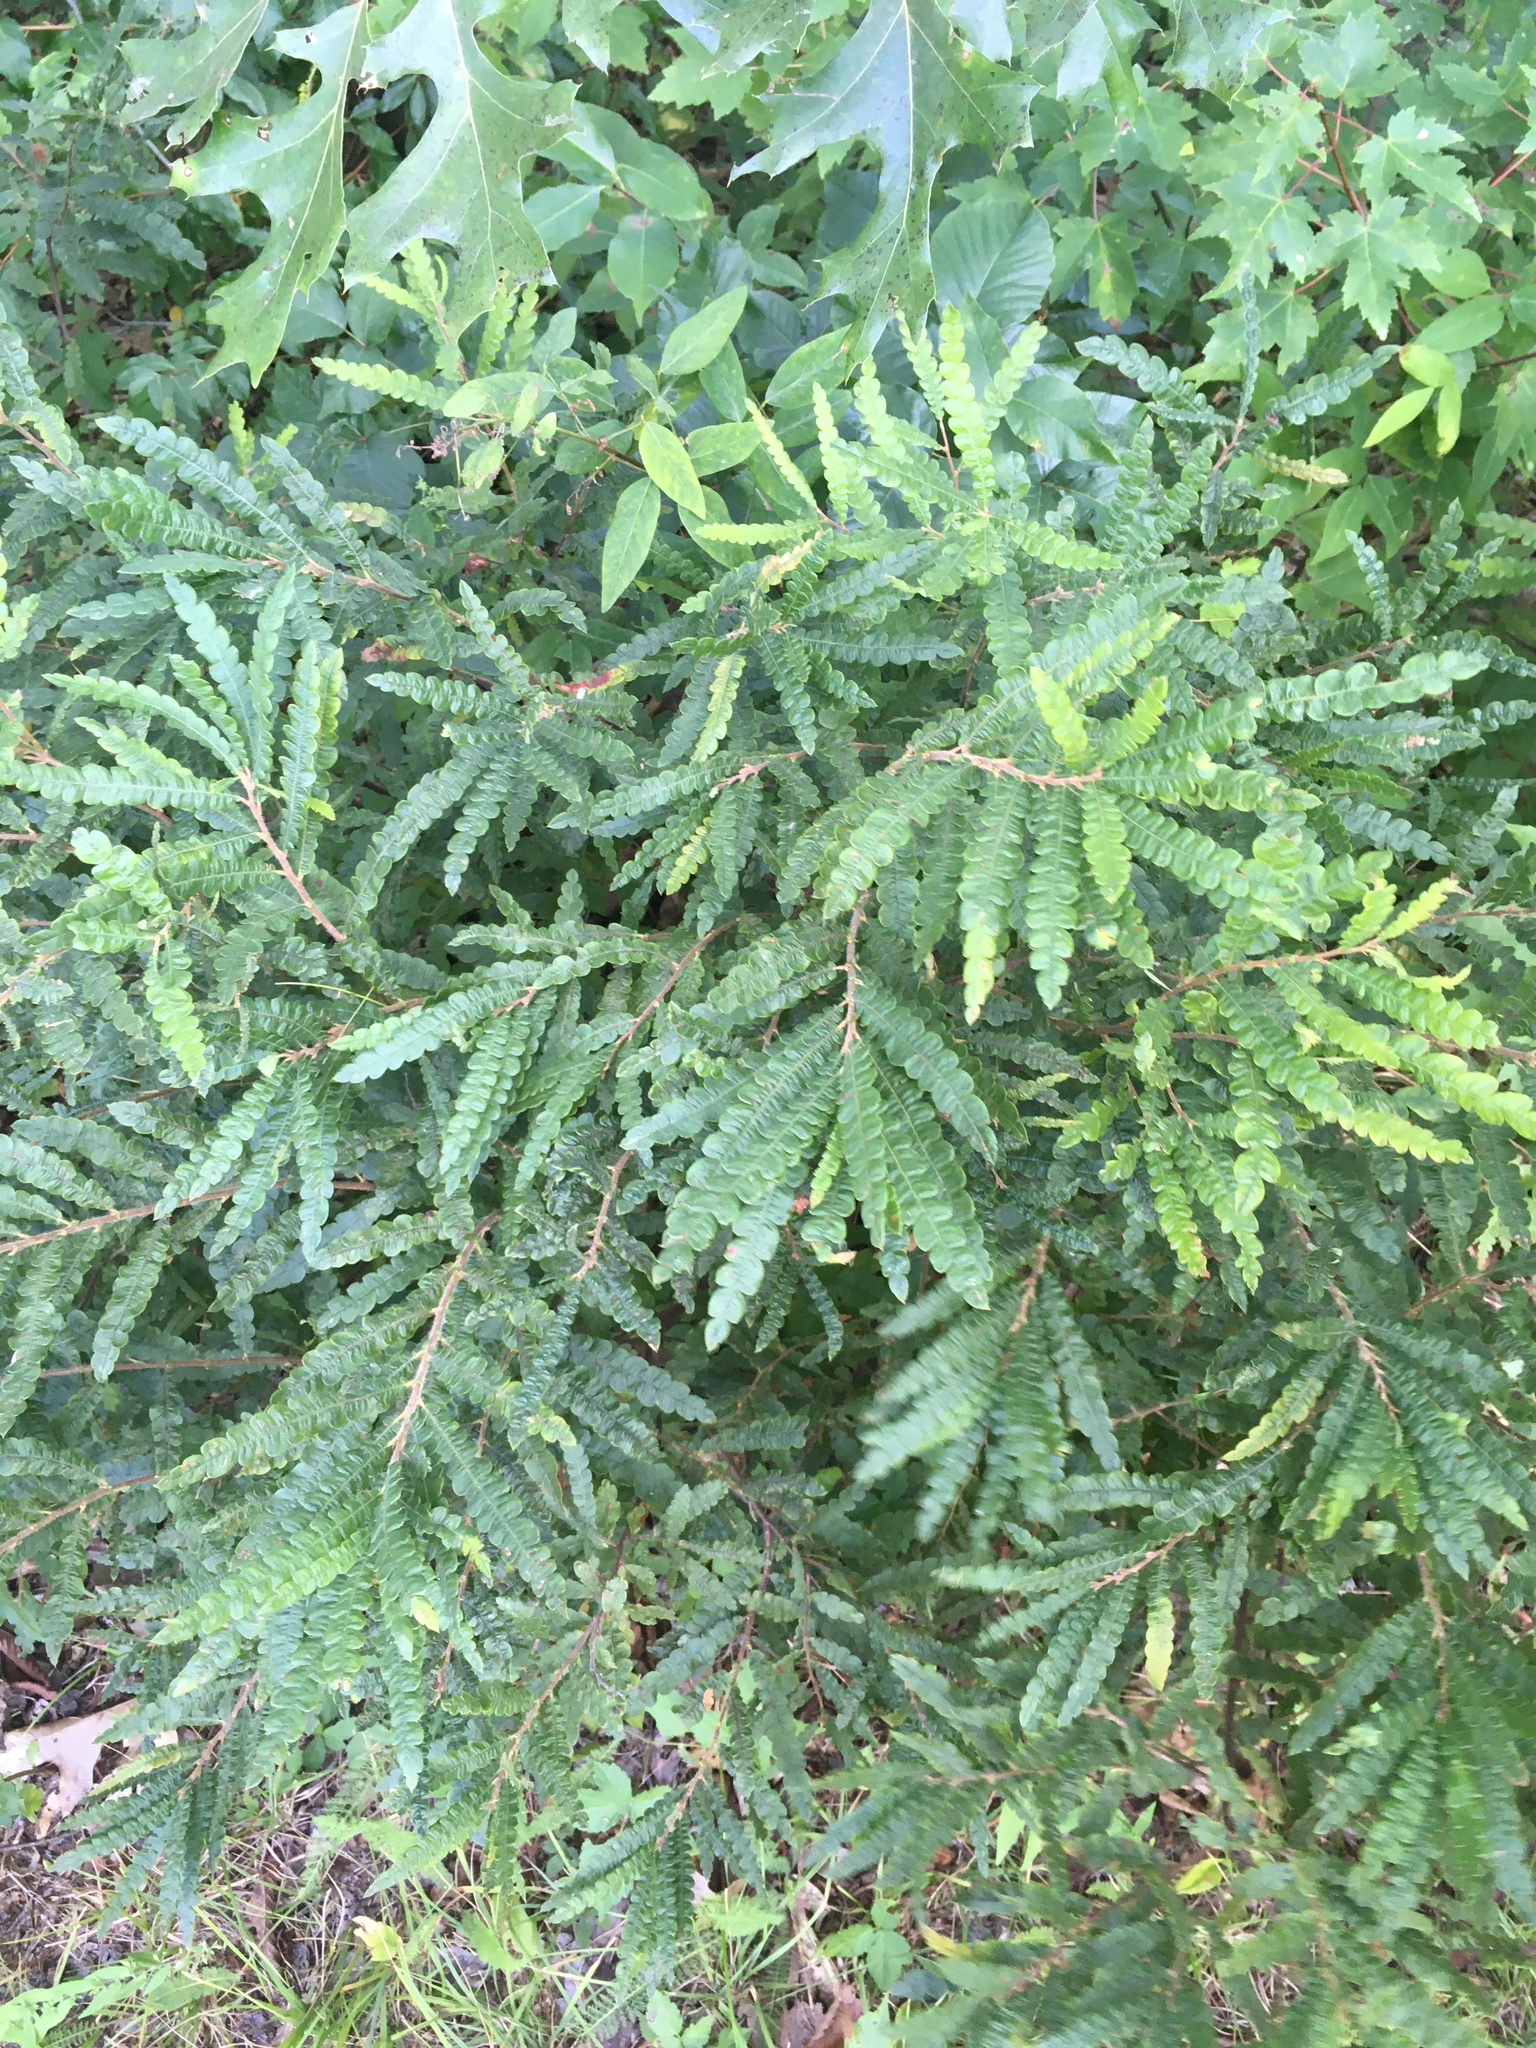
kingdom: Plantae
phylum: Tracheophyta
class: Magnoliopsida
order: Fagales
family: Myricaceae
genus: Comptonia
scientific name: Comptonia peregrina
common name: Sweet-fern
